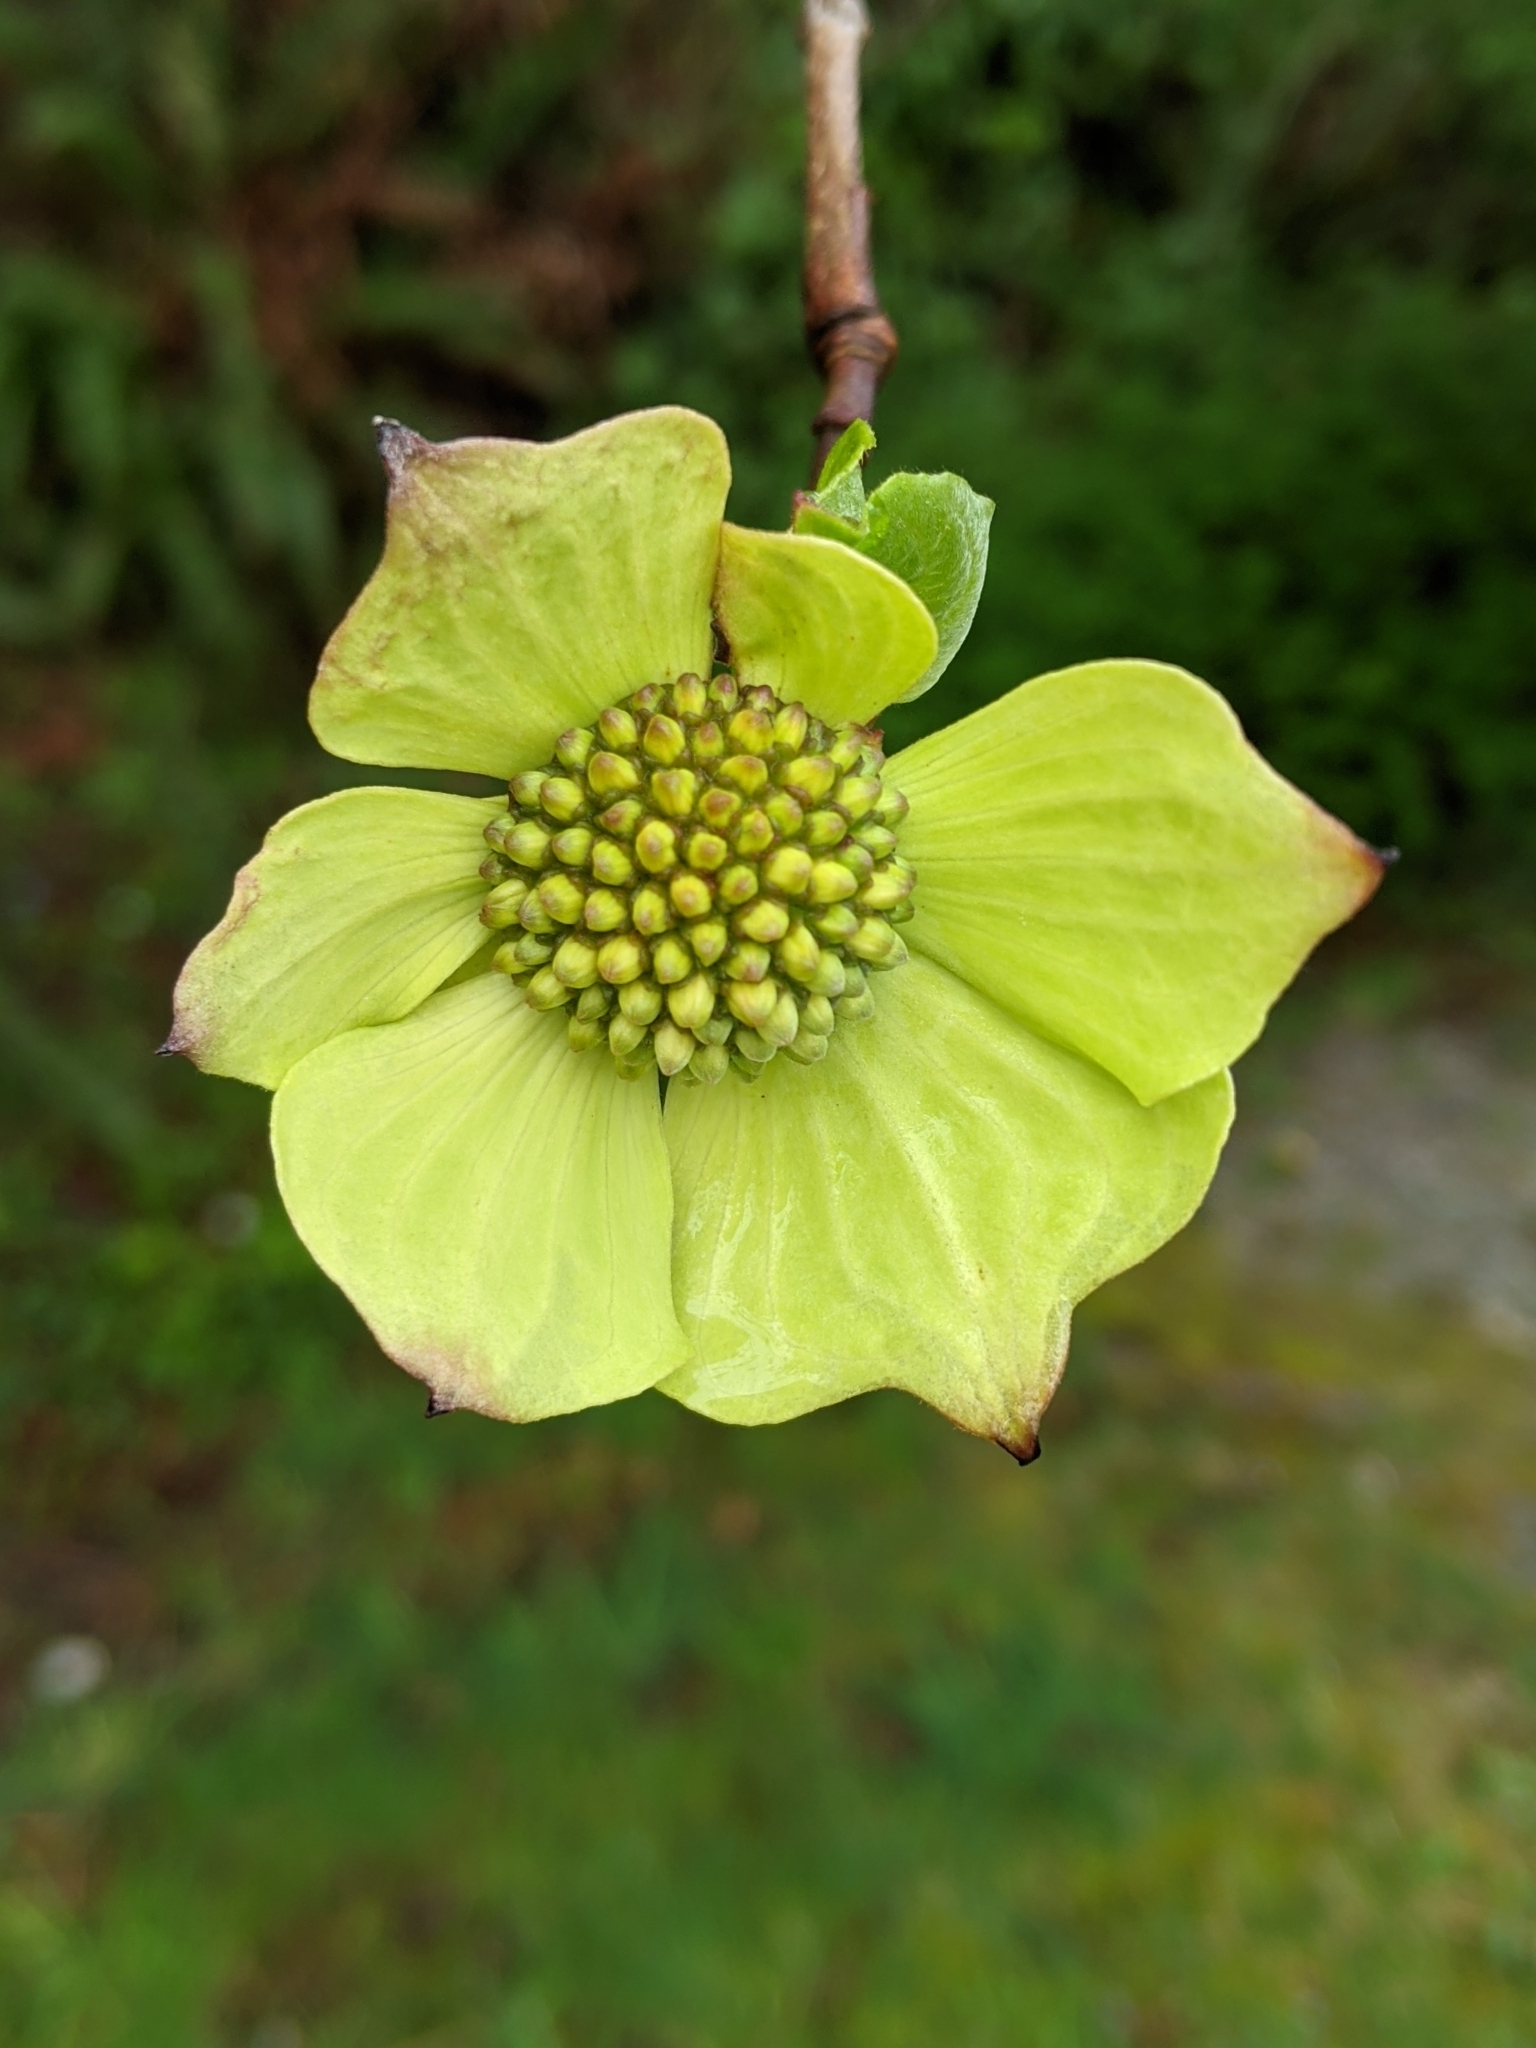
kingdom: Plantae
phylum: Tracheophyta
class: Magnoliopsida
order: Cornales
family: Cornaceae
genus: Cornus
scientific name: Cornus nuttallii
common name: Pacific dogwood
